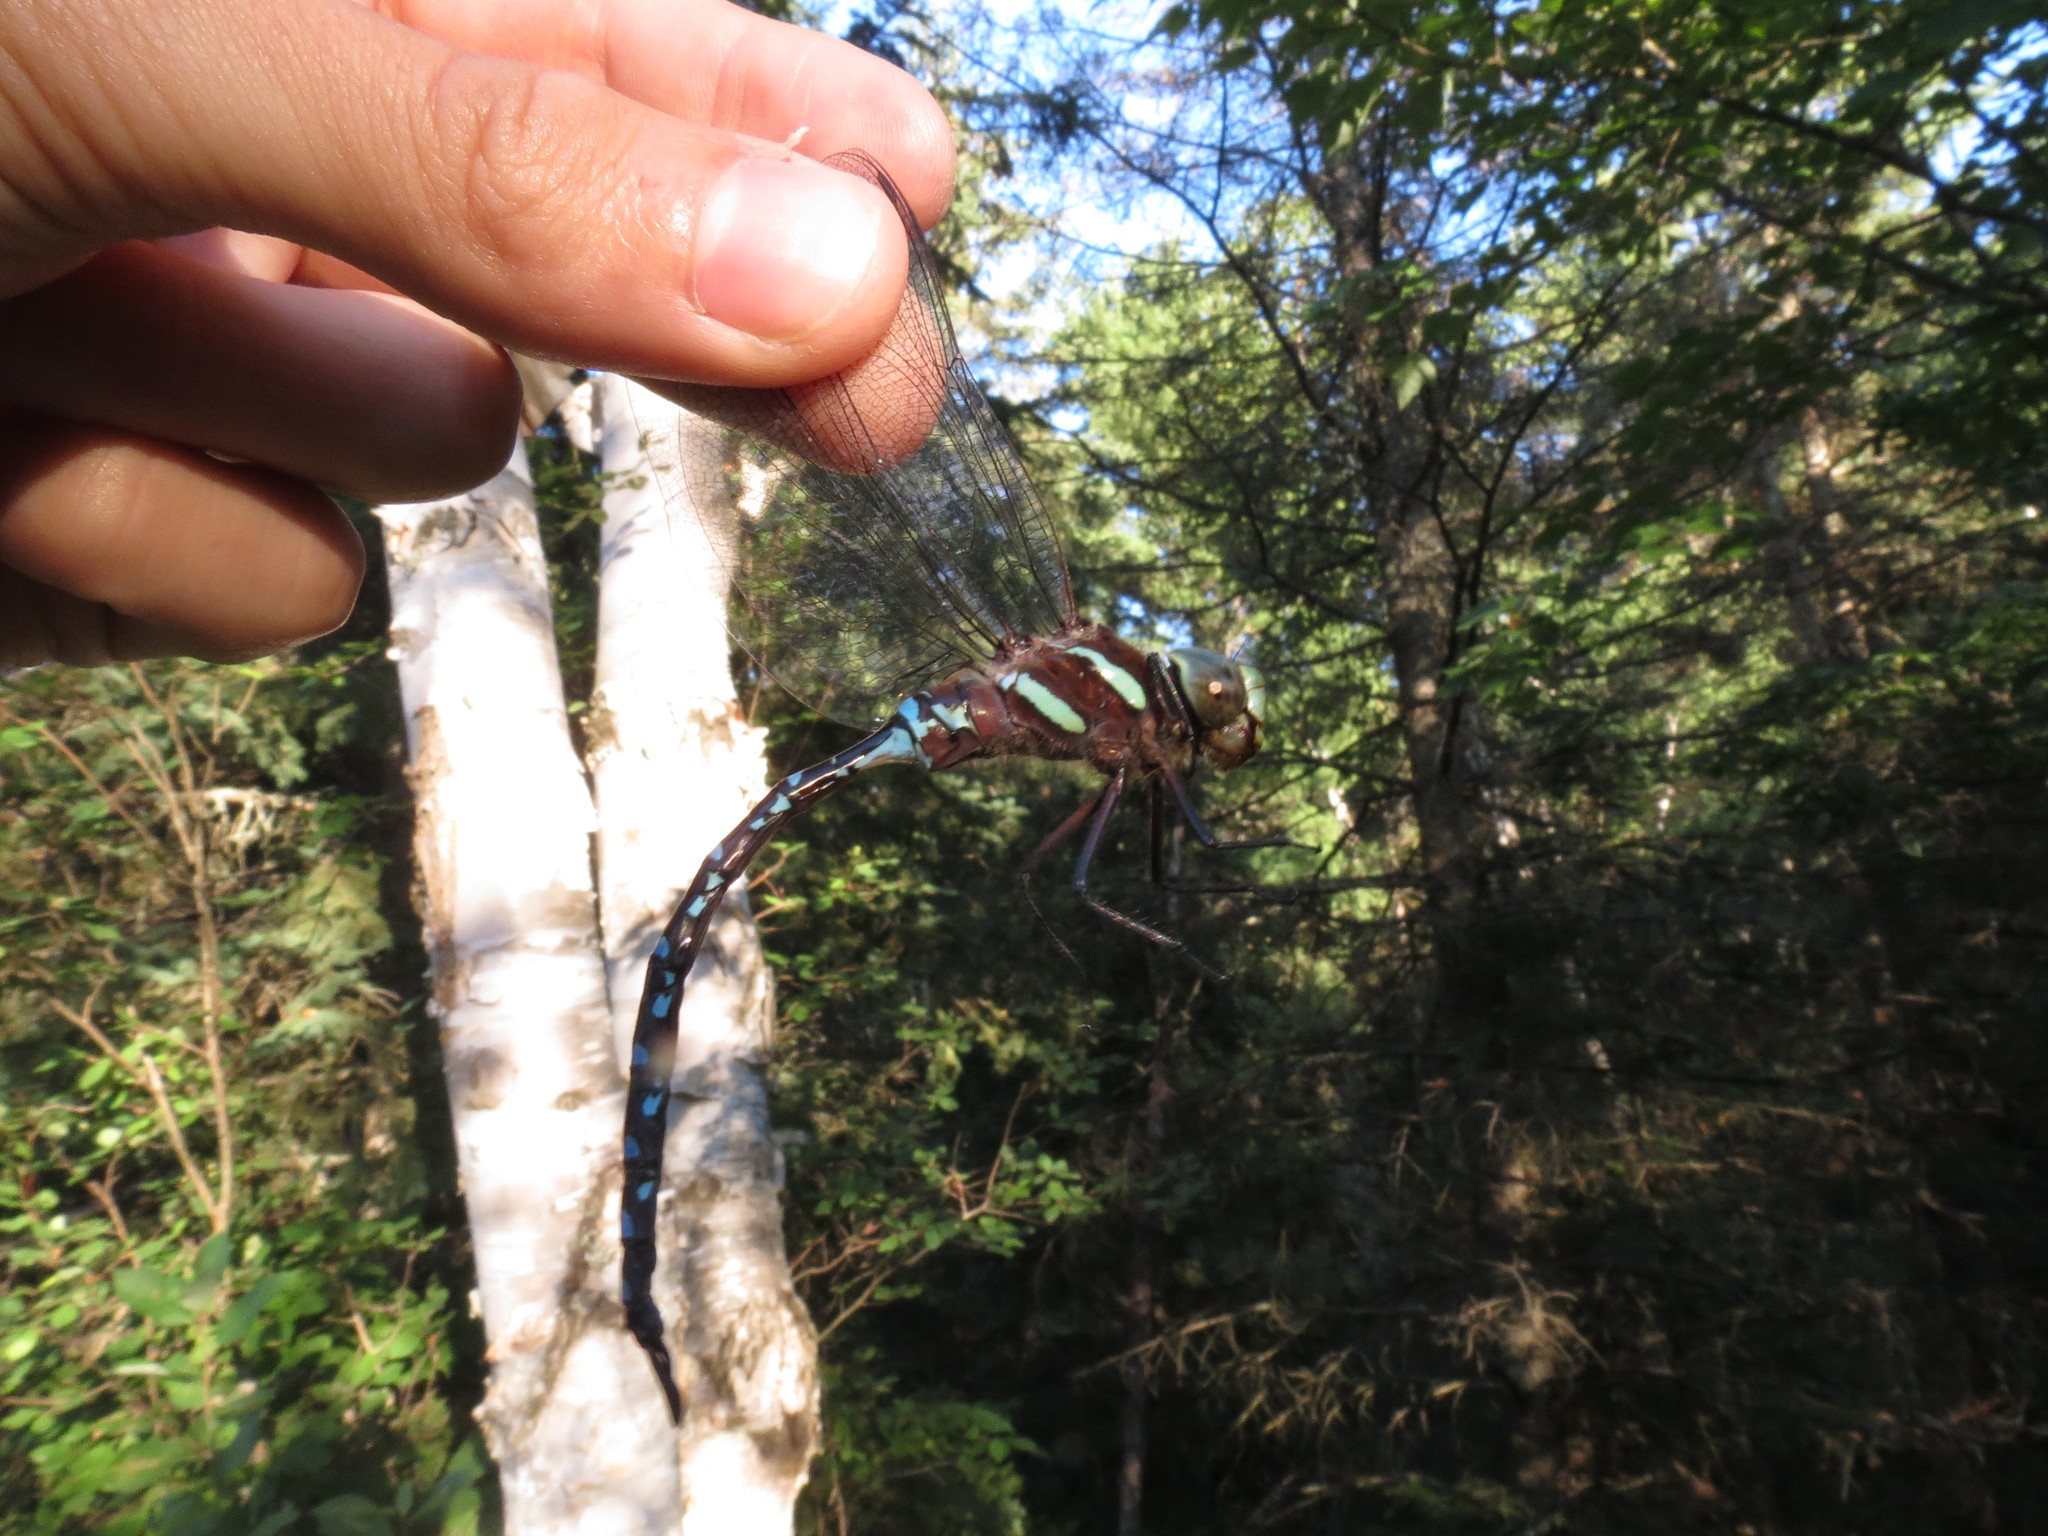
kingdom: Animalia
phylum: Arthropoda
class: Insecta
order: Odonata
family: Aeshnidae
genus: Aeshna
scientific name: Aeshna tuberculifera
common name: Aeschne à tubercules
